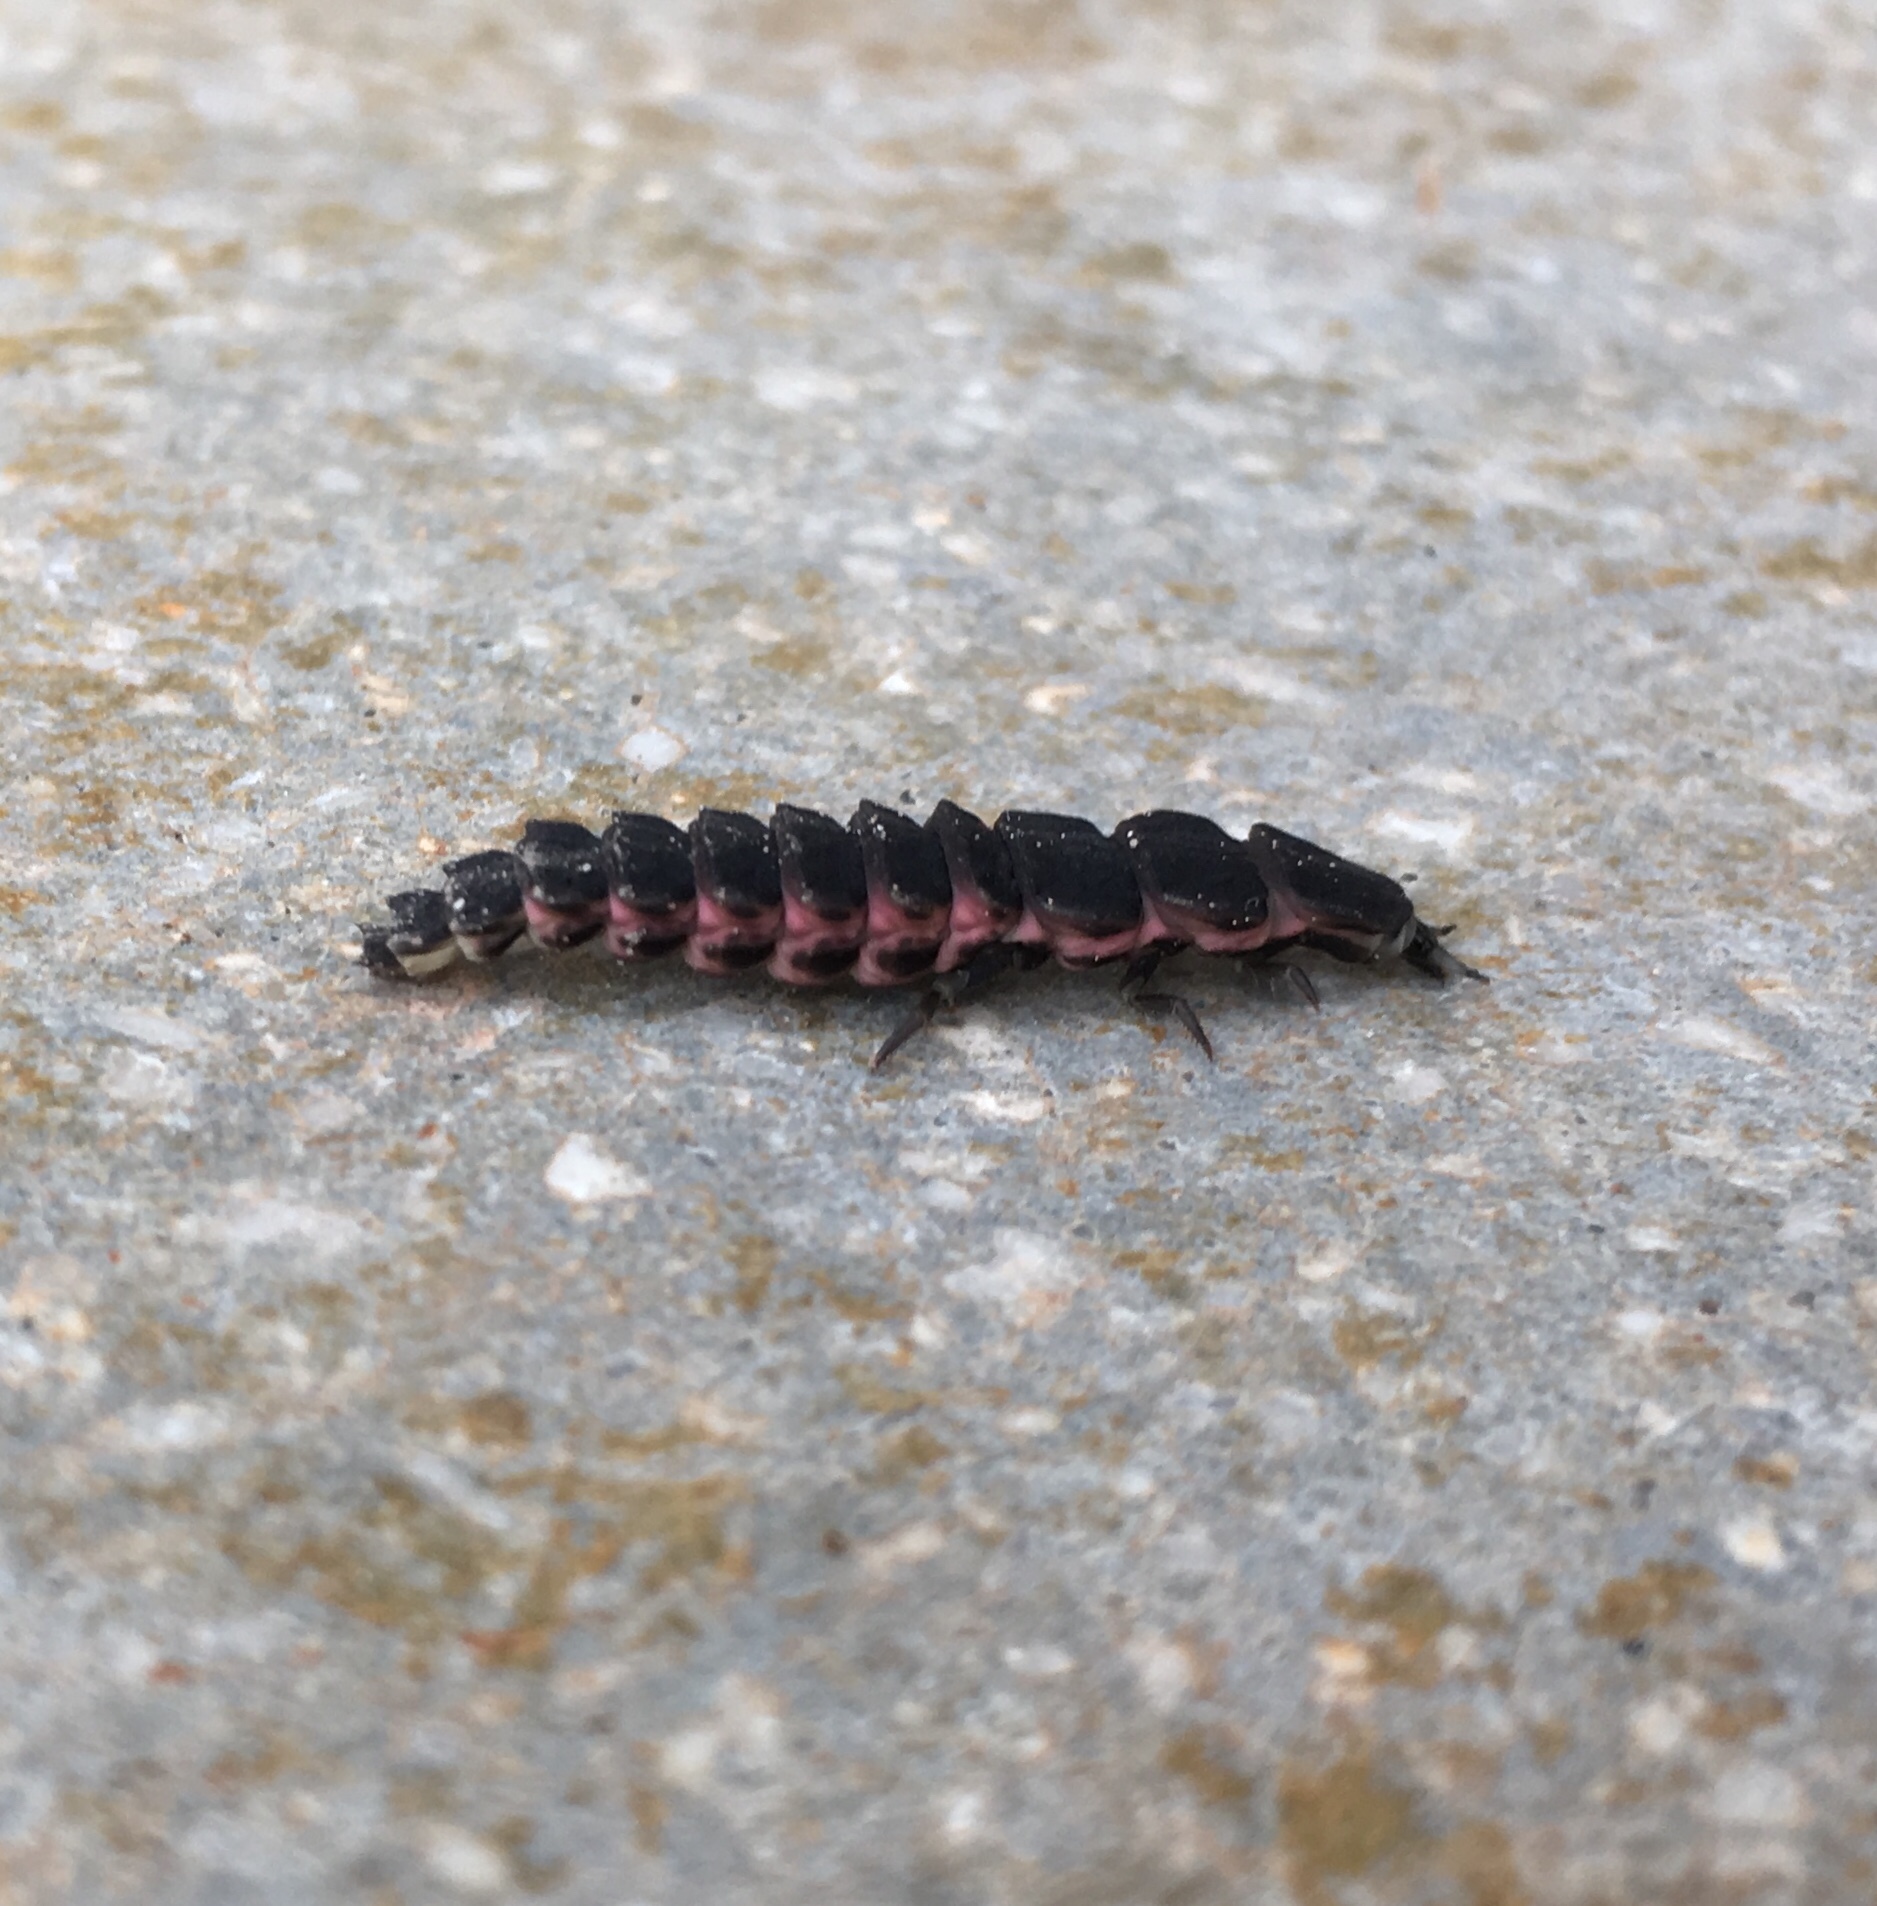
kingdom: Animalia
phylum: Arthropoda
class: Insecta
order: Coleoptera
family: Lampyridae
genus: Nyctophila
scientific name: Nyctophila reichii
